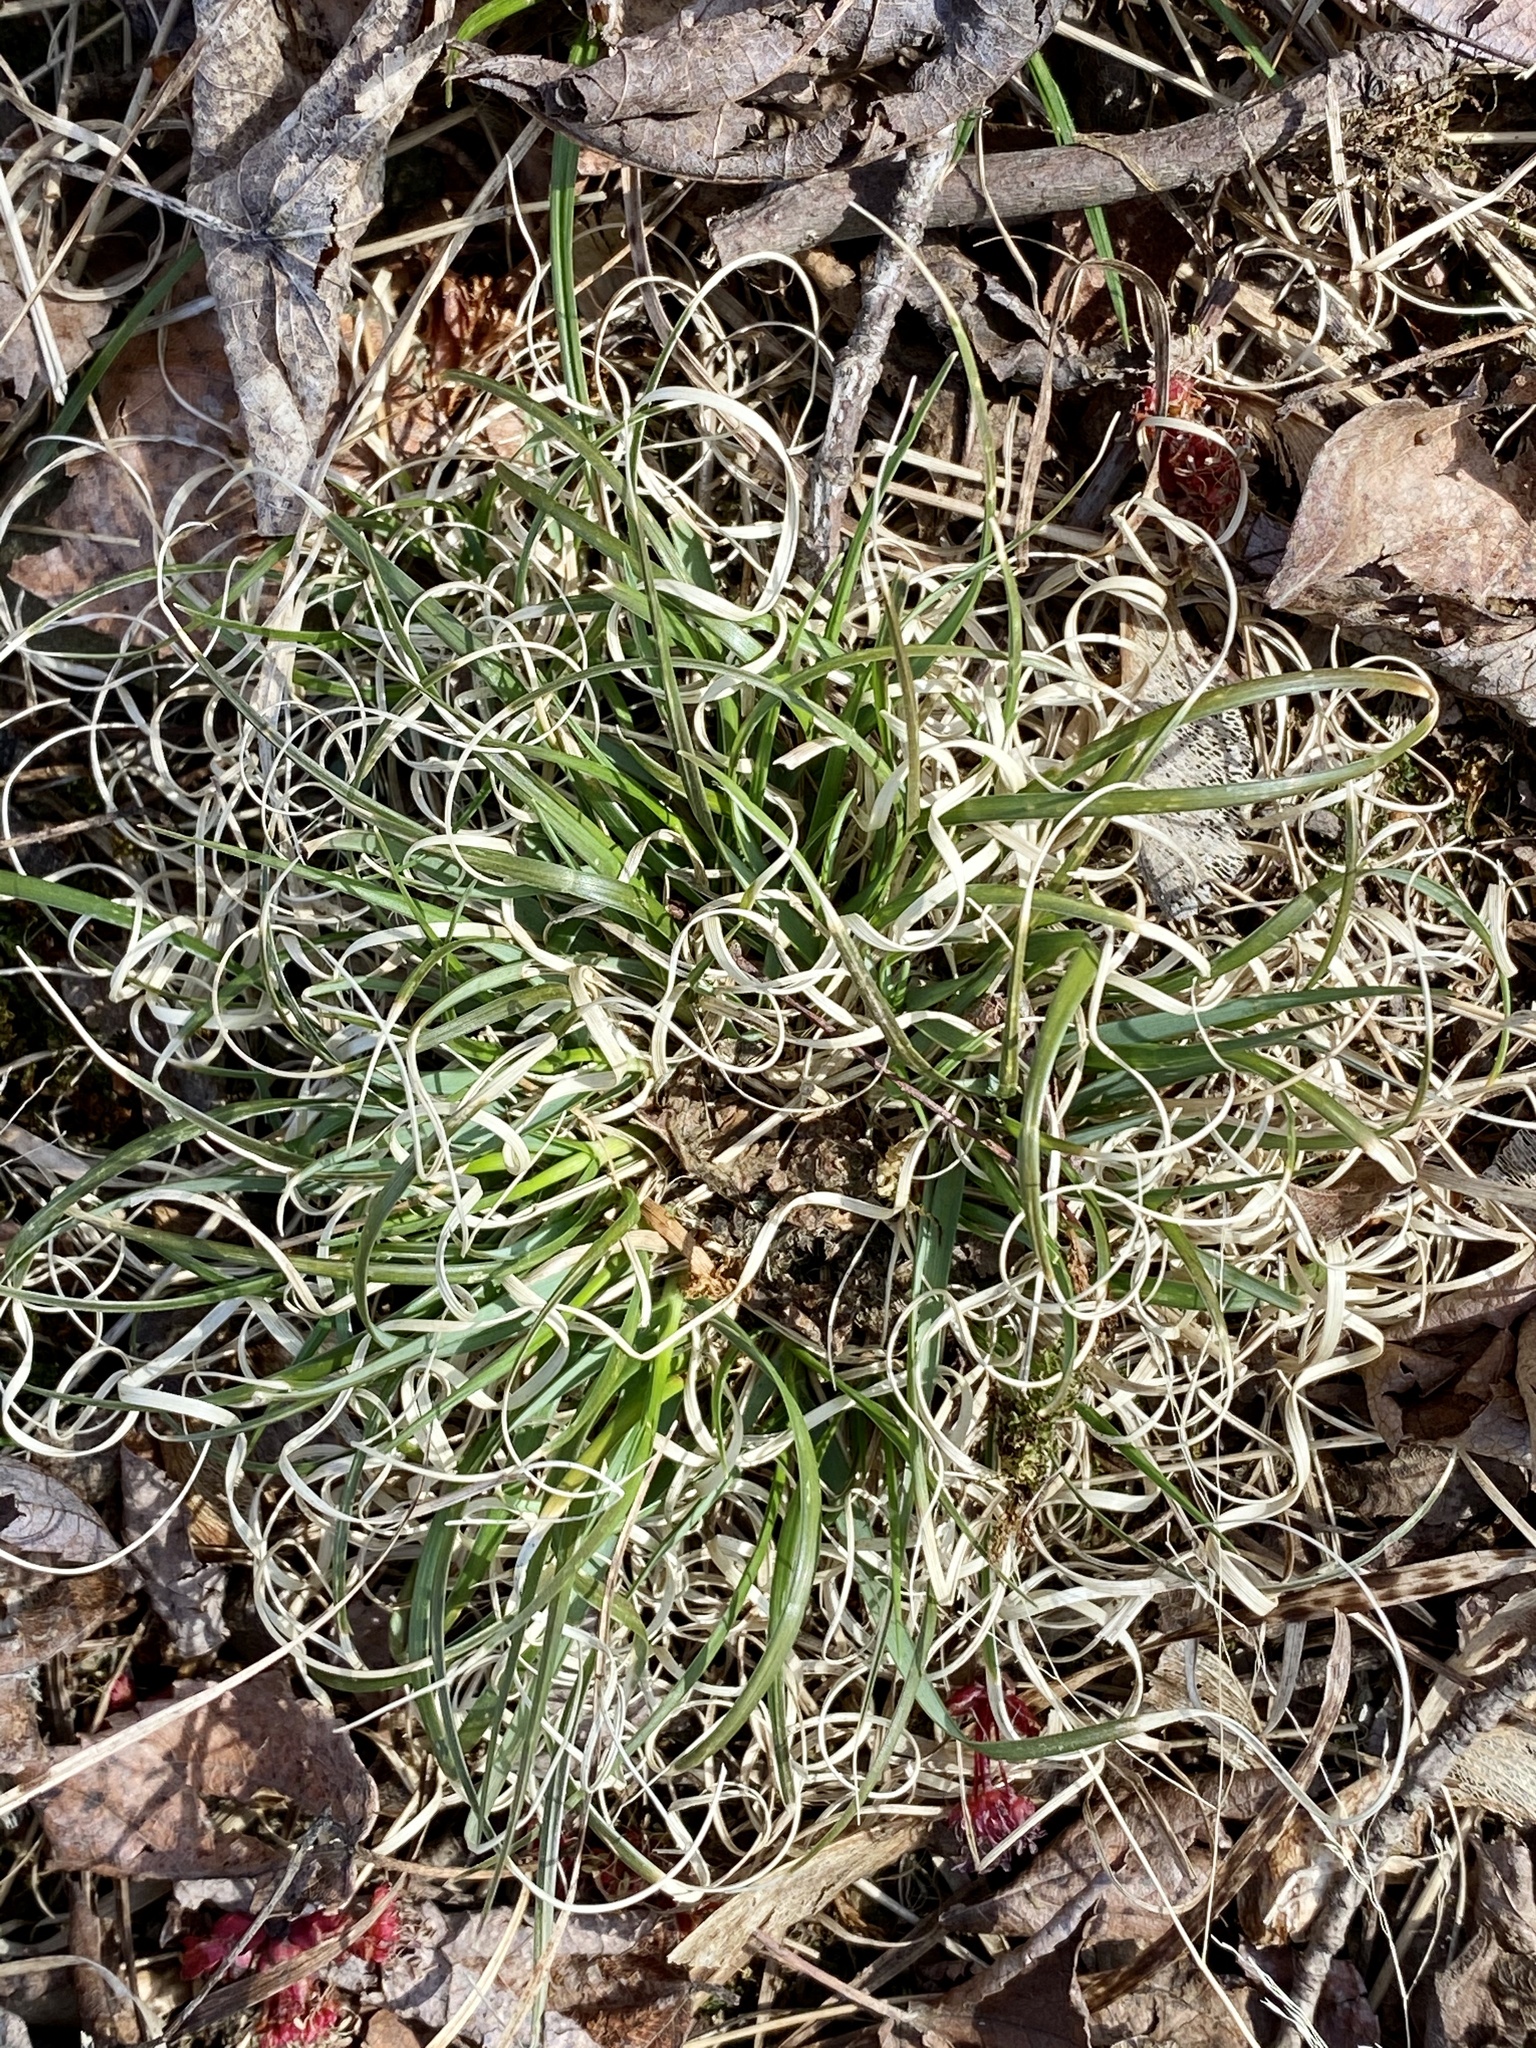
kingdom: Plantae
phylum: Tracheophyta
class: Liliopsida
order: Poales
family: Poaceae
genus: Danthonia
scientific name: Danthonia spicata
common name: Common wild oatgrass
